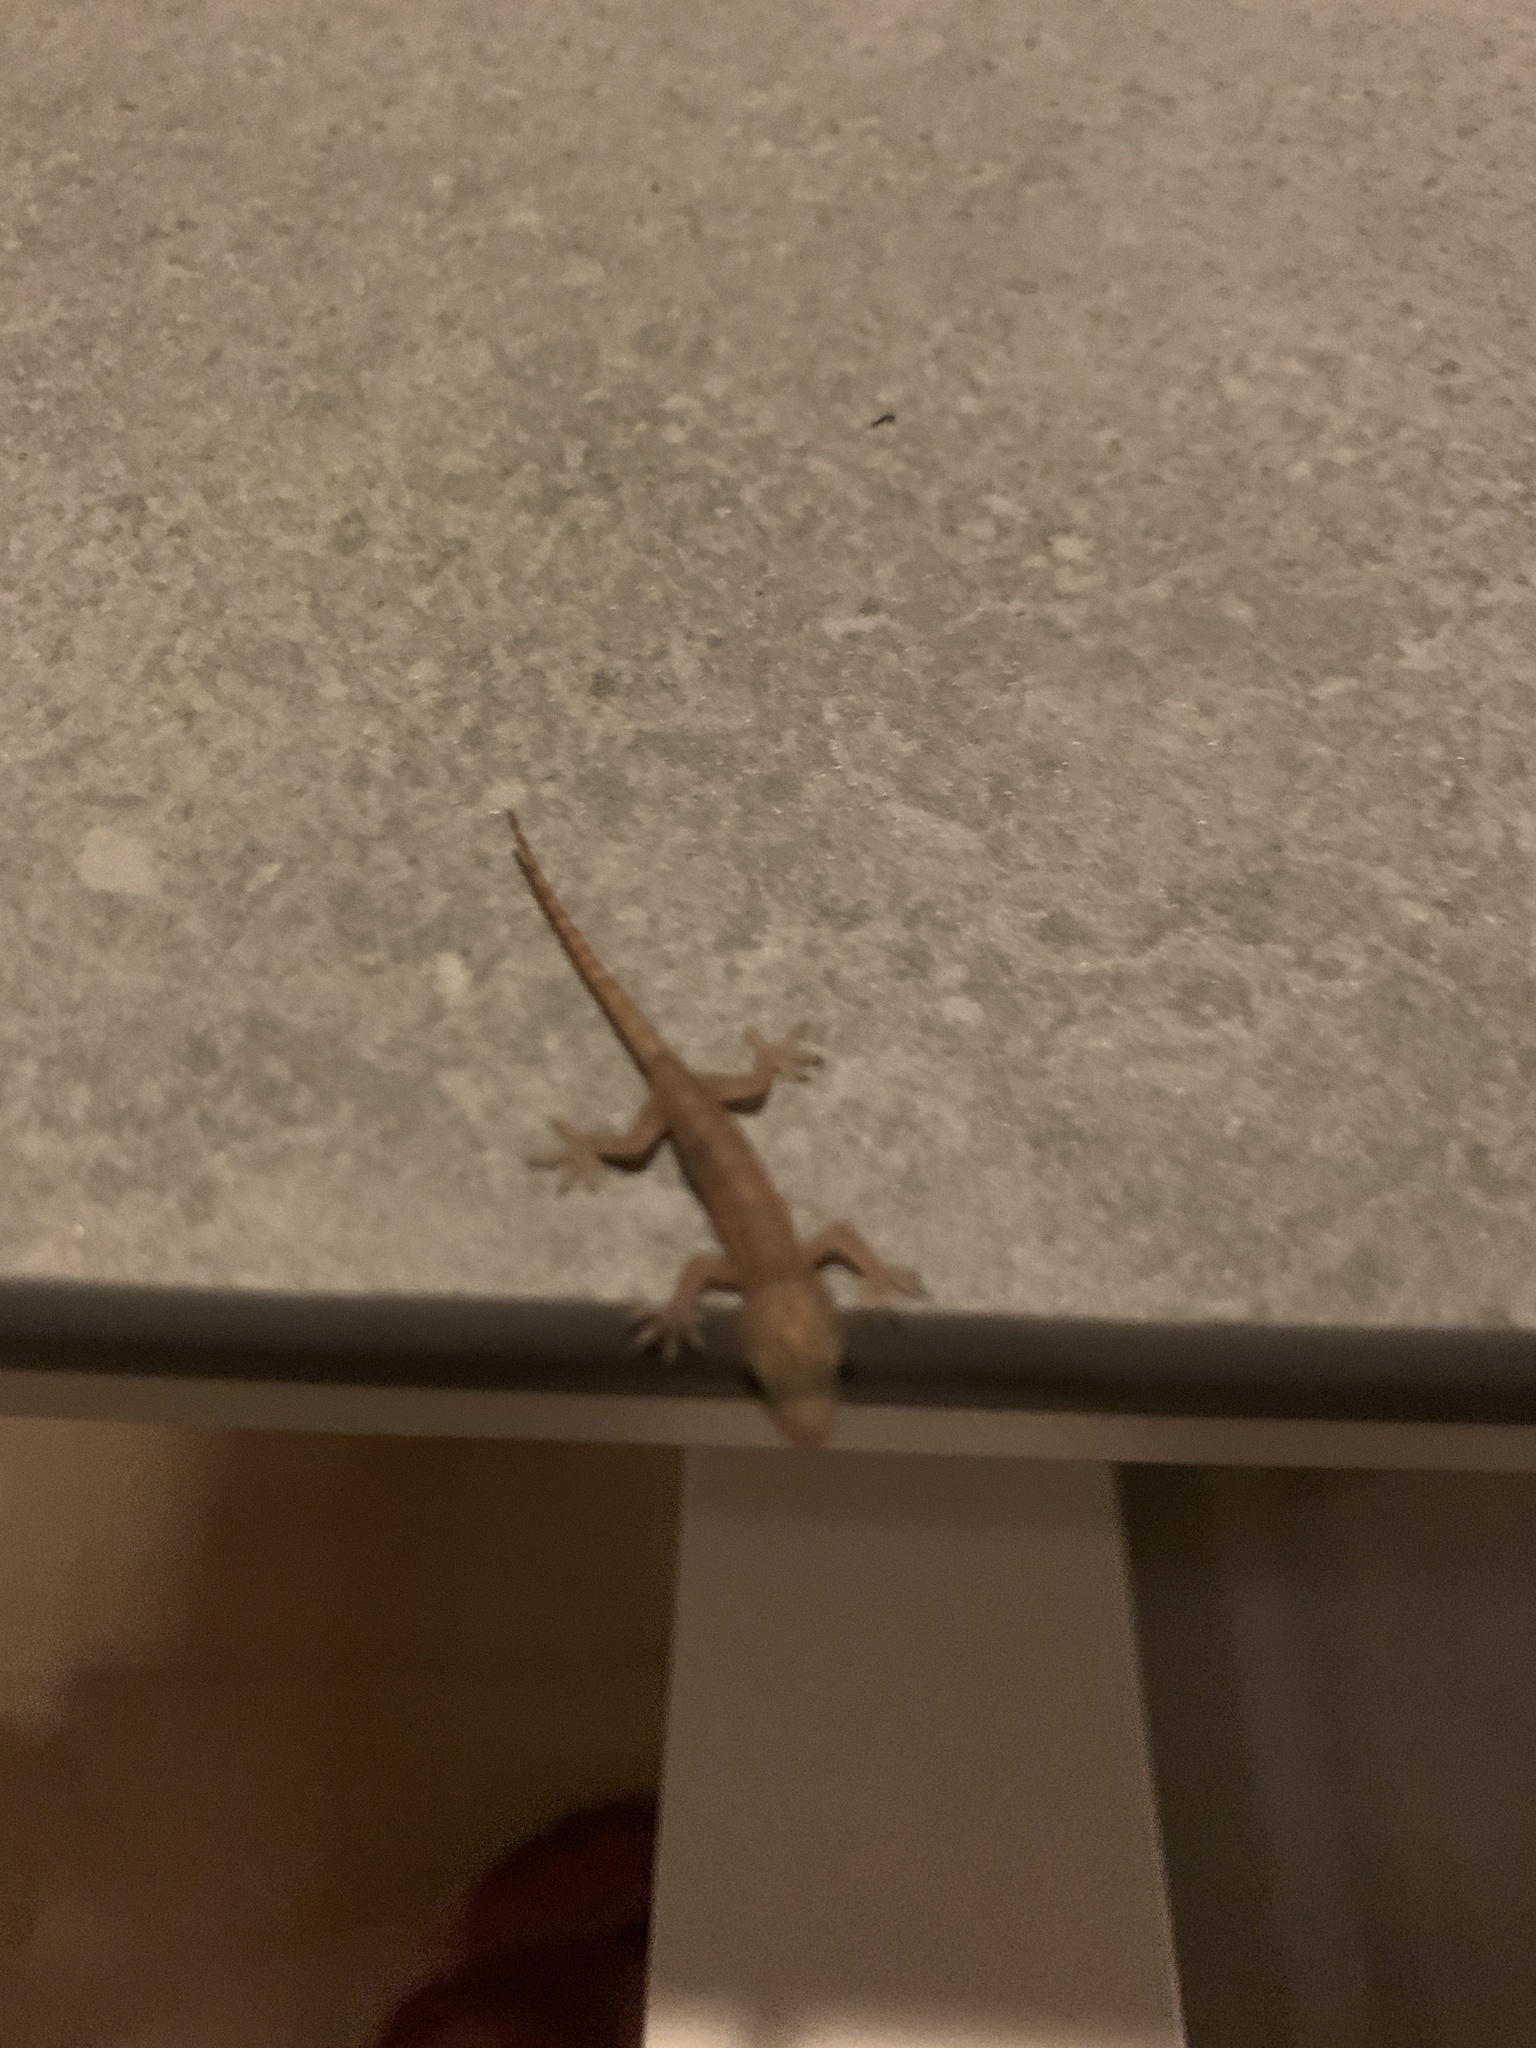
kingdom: Animalia
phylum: Chordata
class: Squamata
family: Gekkonidae
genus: Hemidactylus
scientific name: Hemidactylus frenatus
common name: Common house gecko
